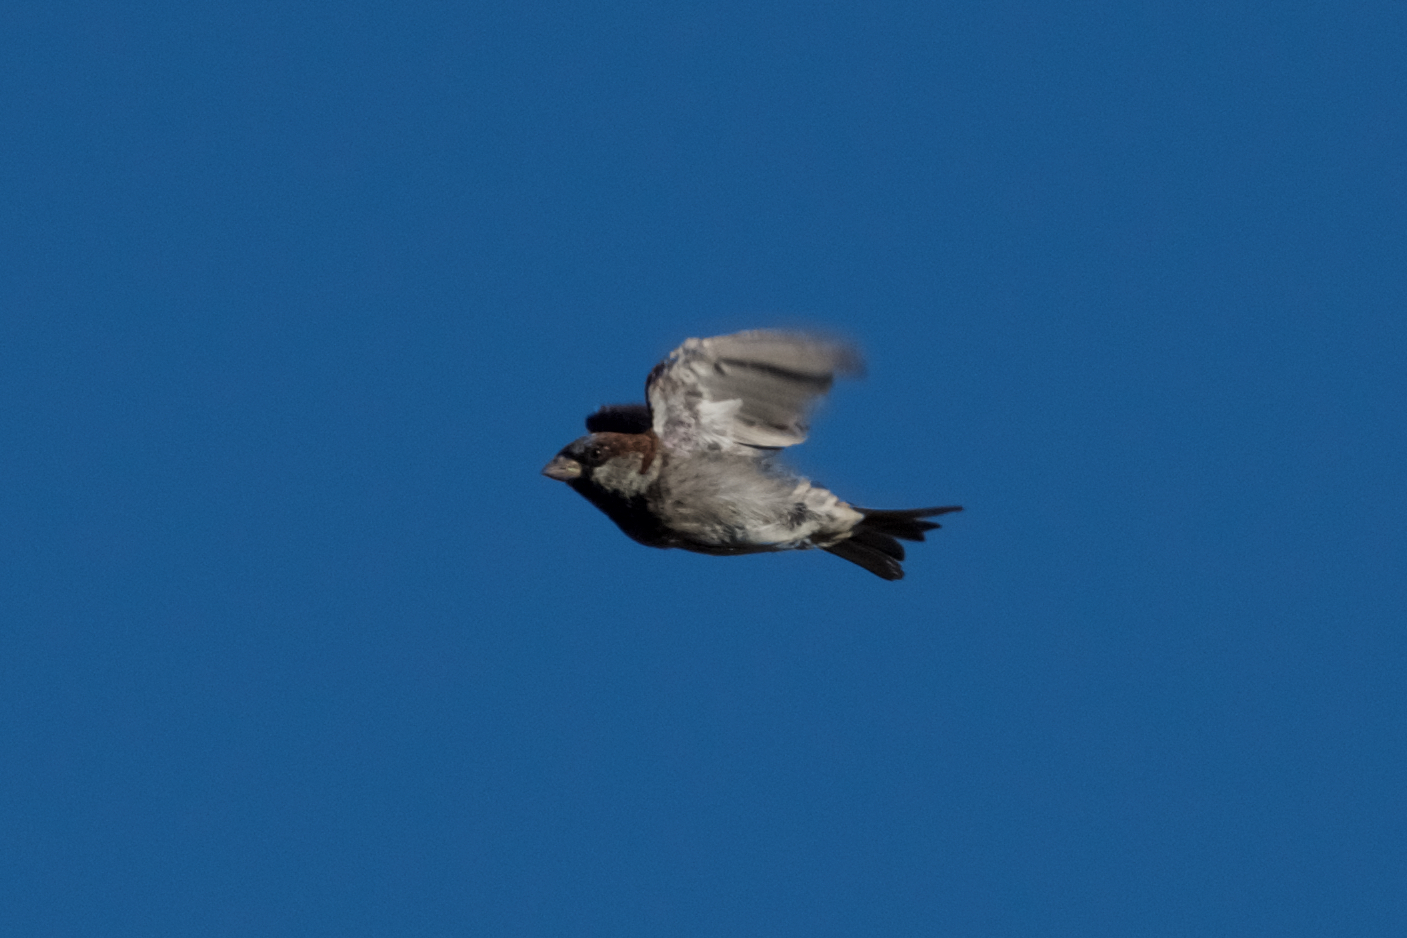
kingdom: Animalia
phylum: Chordata
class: Aves
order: Passeriformes
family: Passeridae
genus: Passer
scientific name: Passer domesticus
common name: House sparrow
